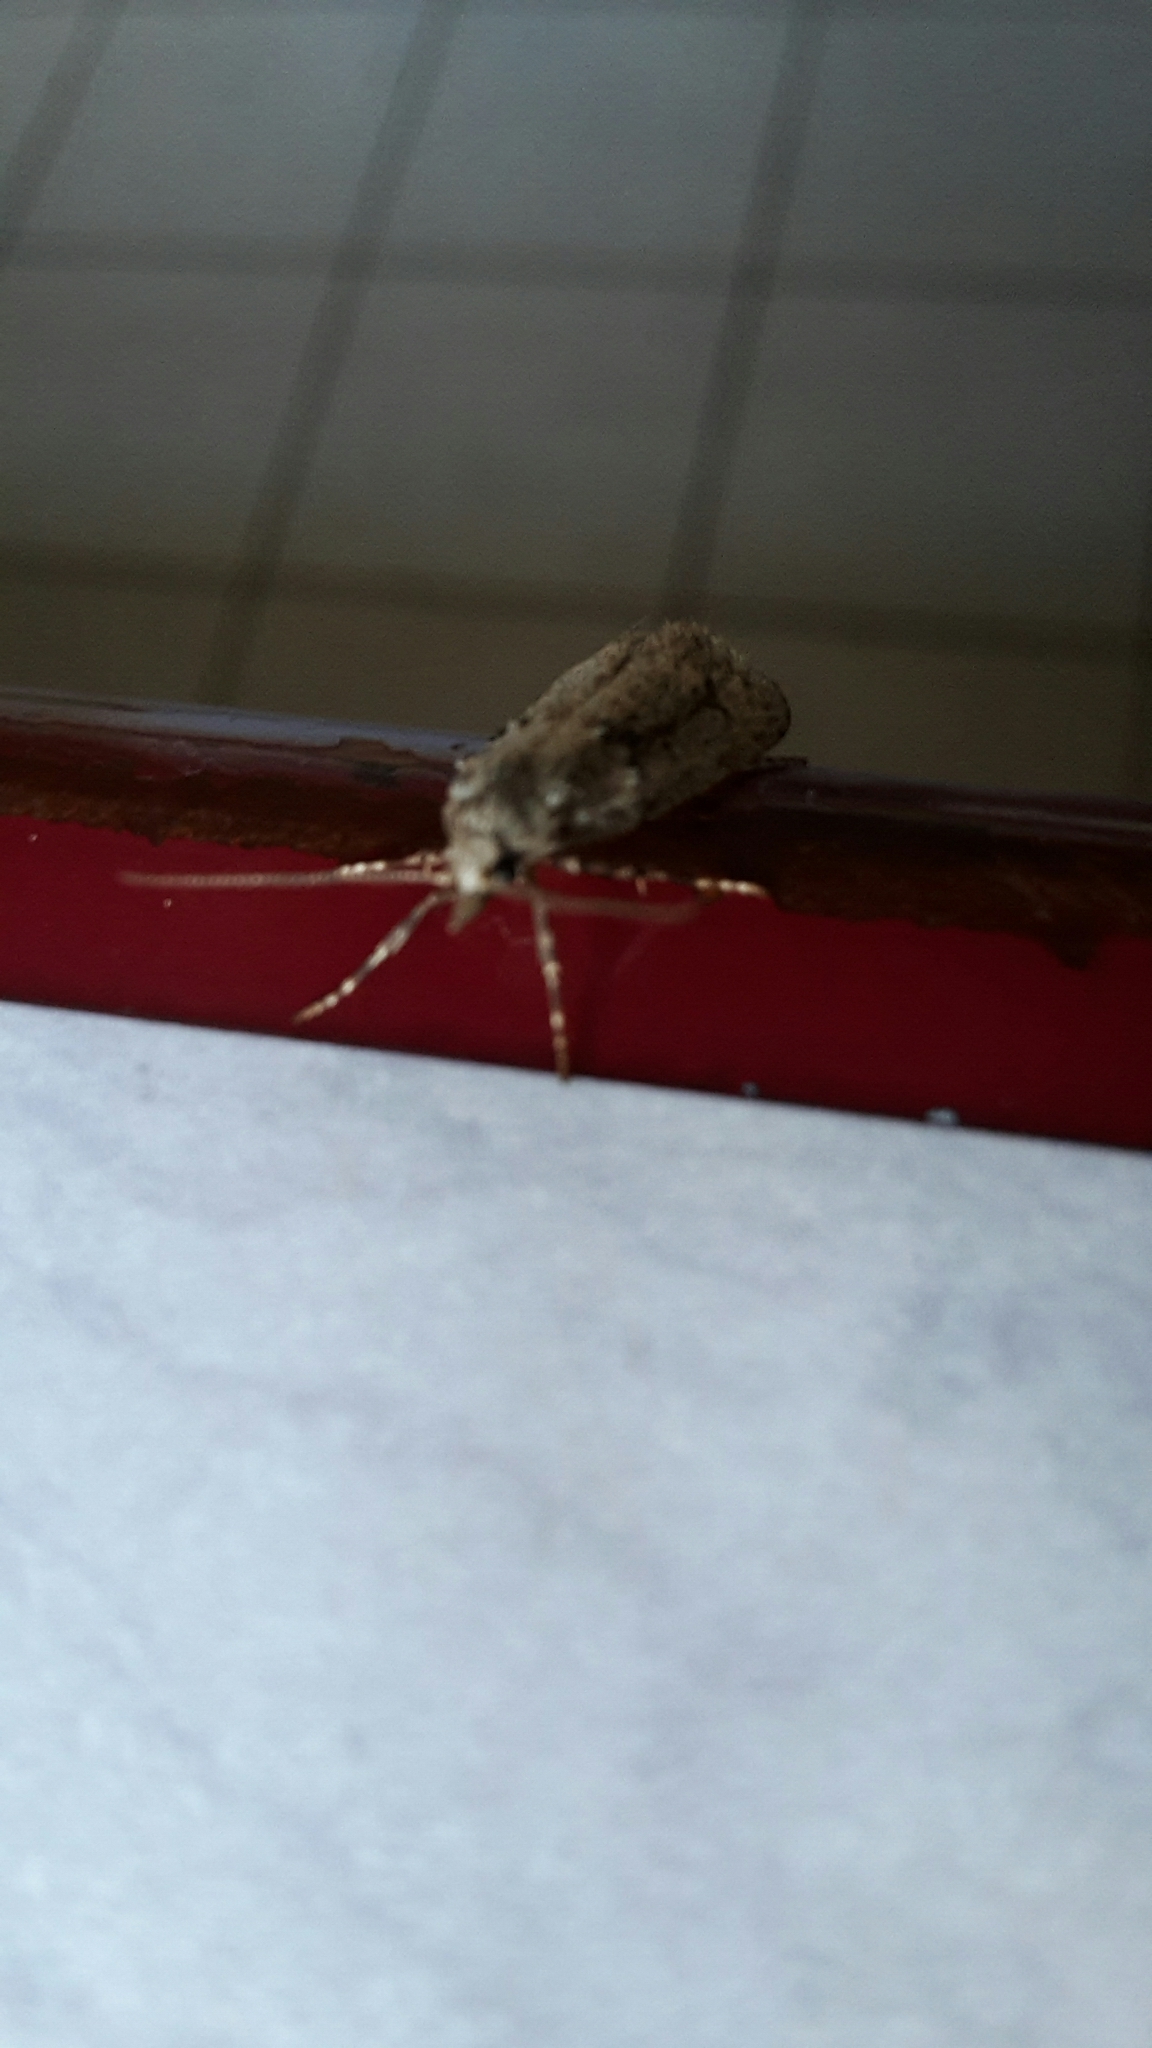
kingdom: Animalia
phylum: Arthropoda
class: Insecta
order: Lepidoptera
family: Lypusidae
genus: Diurnea
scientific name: Diurnea fagella
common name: March tubic
